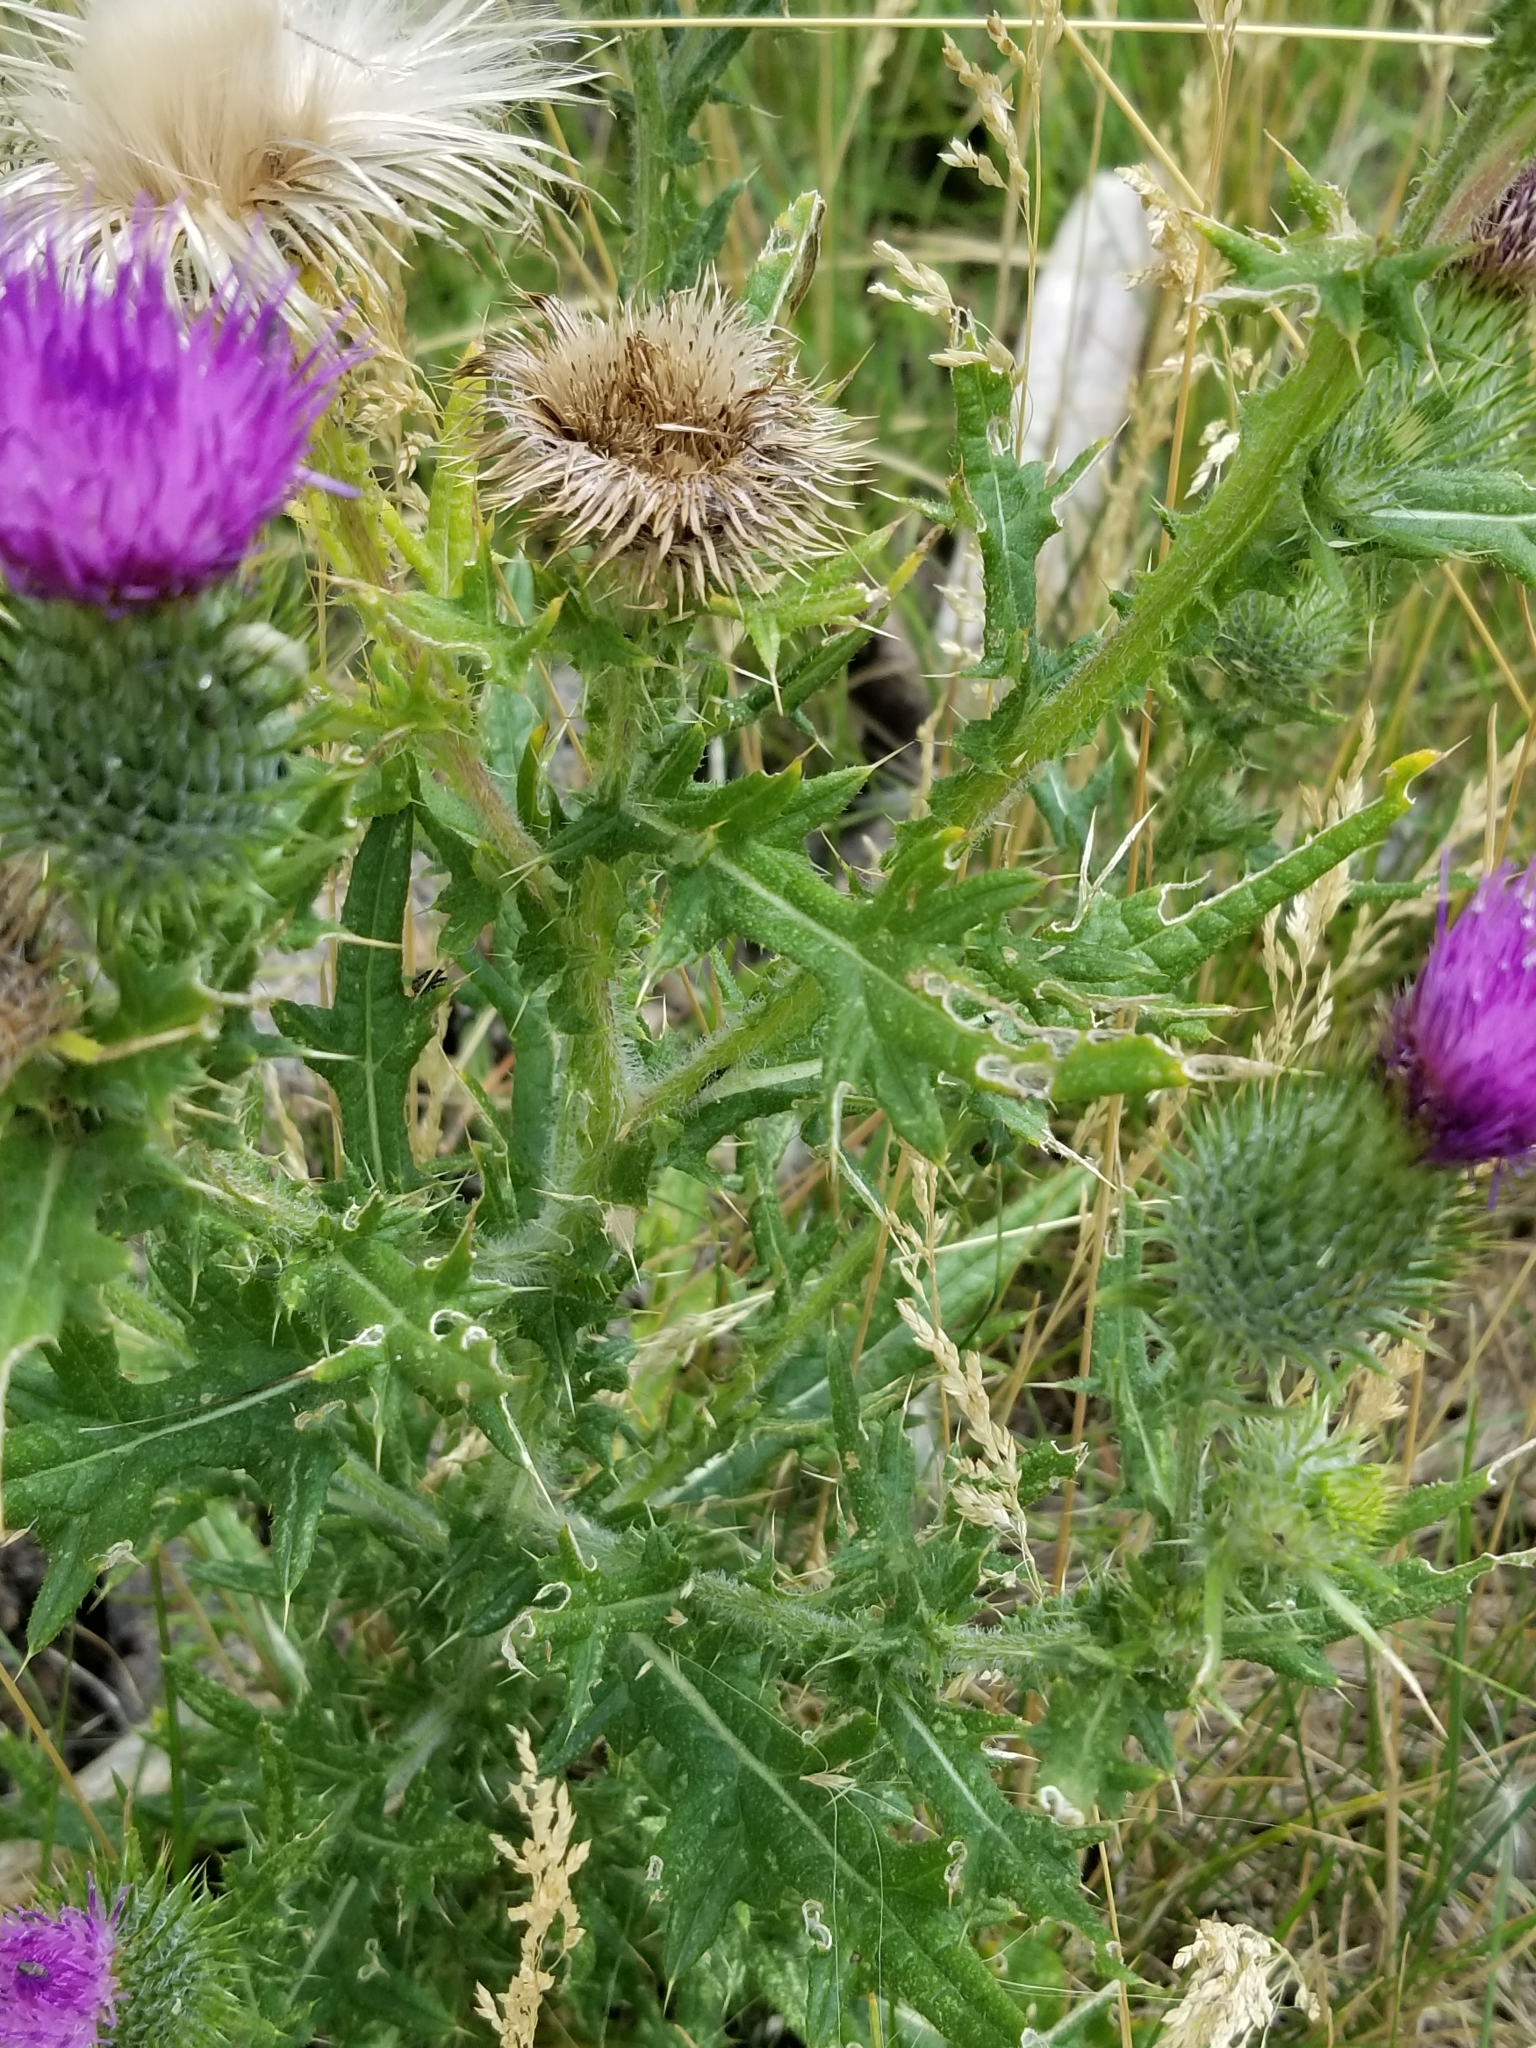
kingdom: Plantae
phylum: Tracheophyta
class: Magnoliopsida
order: Asterales
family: Asteraceae
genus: Cirsium
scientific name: Cirsium vulgare
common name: Bull thistle
